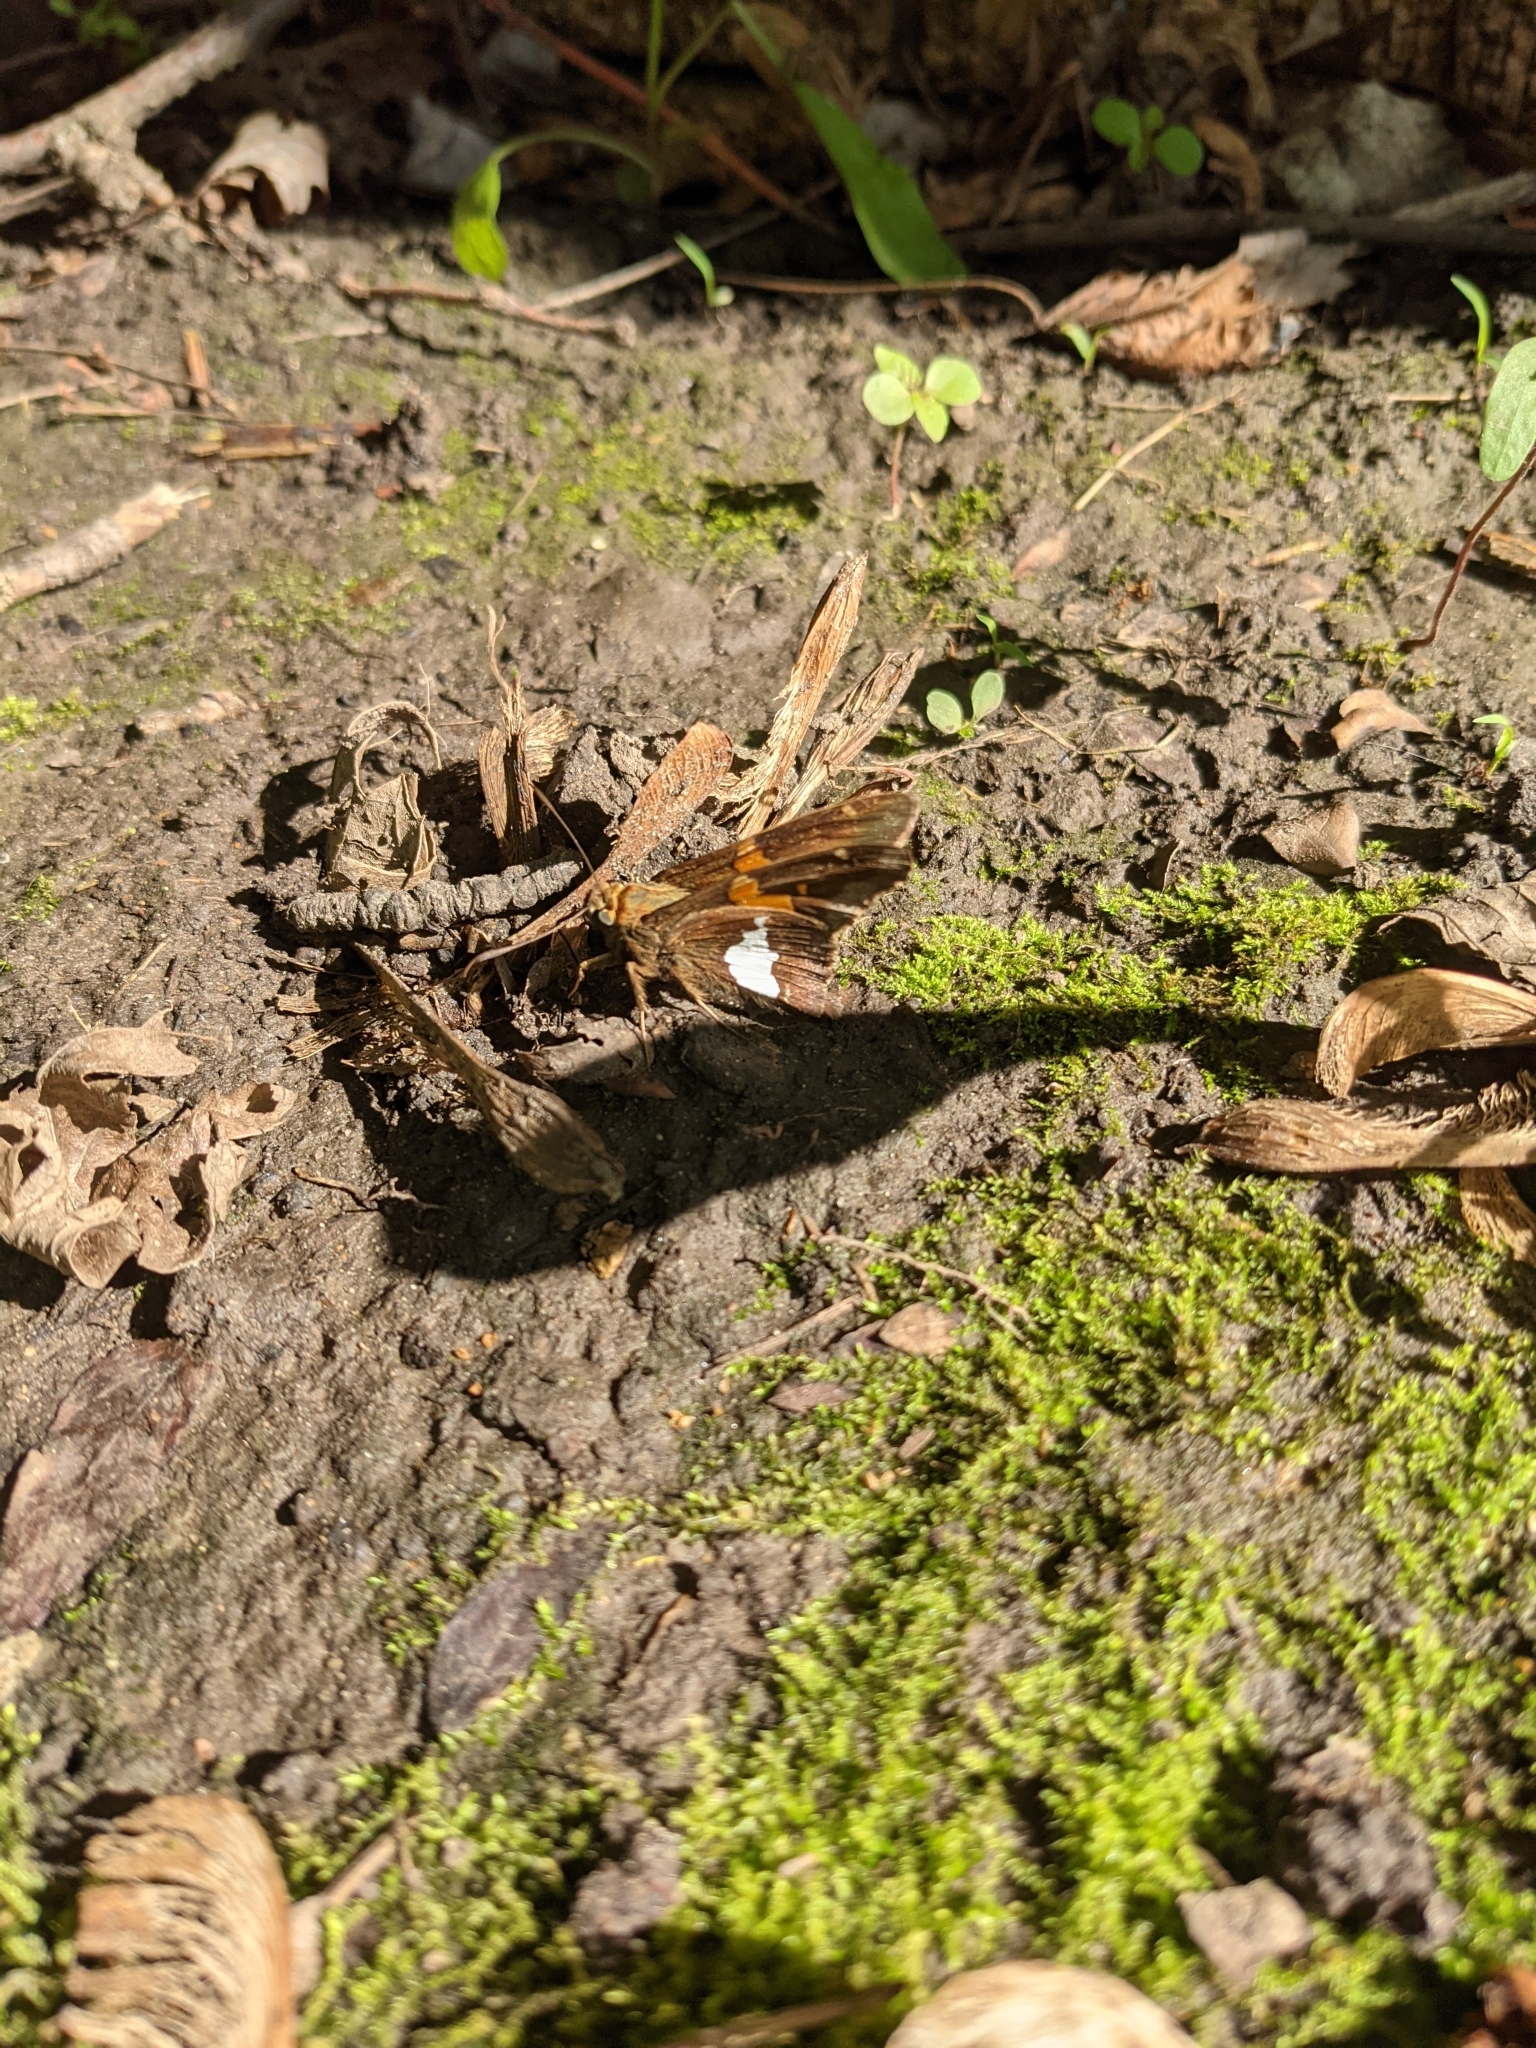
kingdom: Animalia
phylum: Arthropoda
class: Insecta
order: Lepidoptera
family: Hesperiidae
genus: Epargyreus
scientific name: Epargyreus clarus
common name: Silver-spotted skipper
